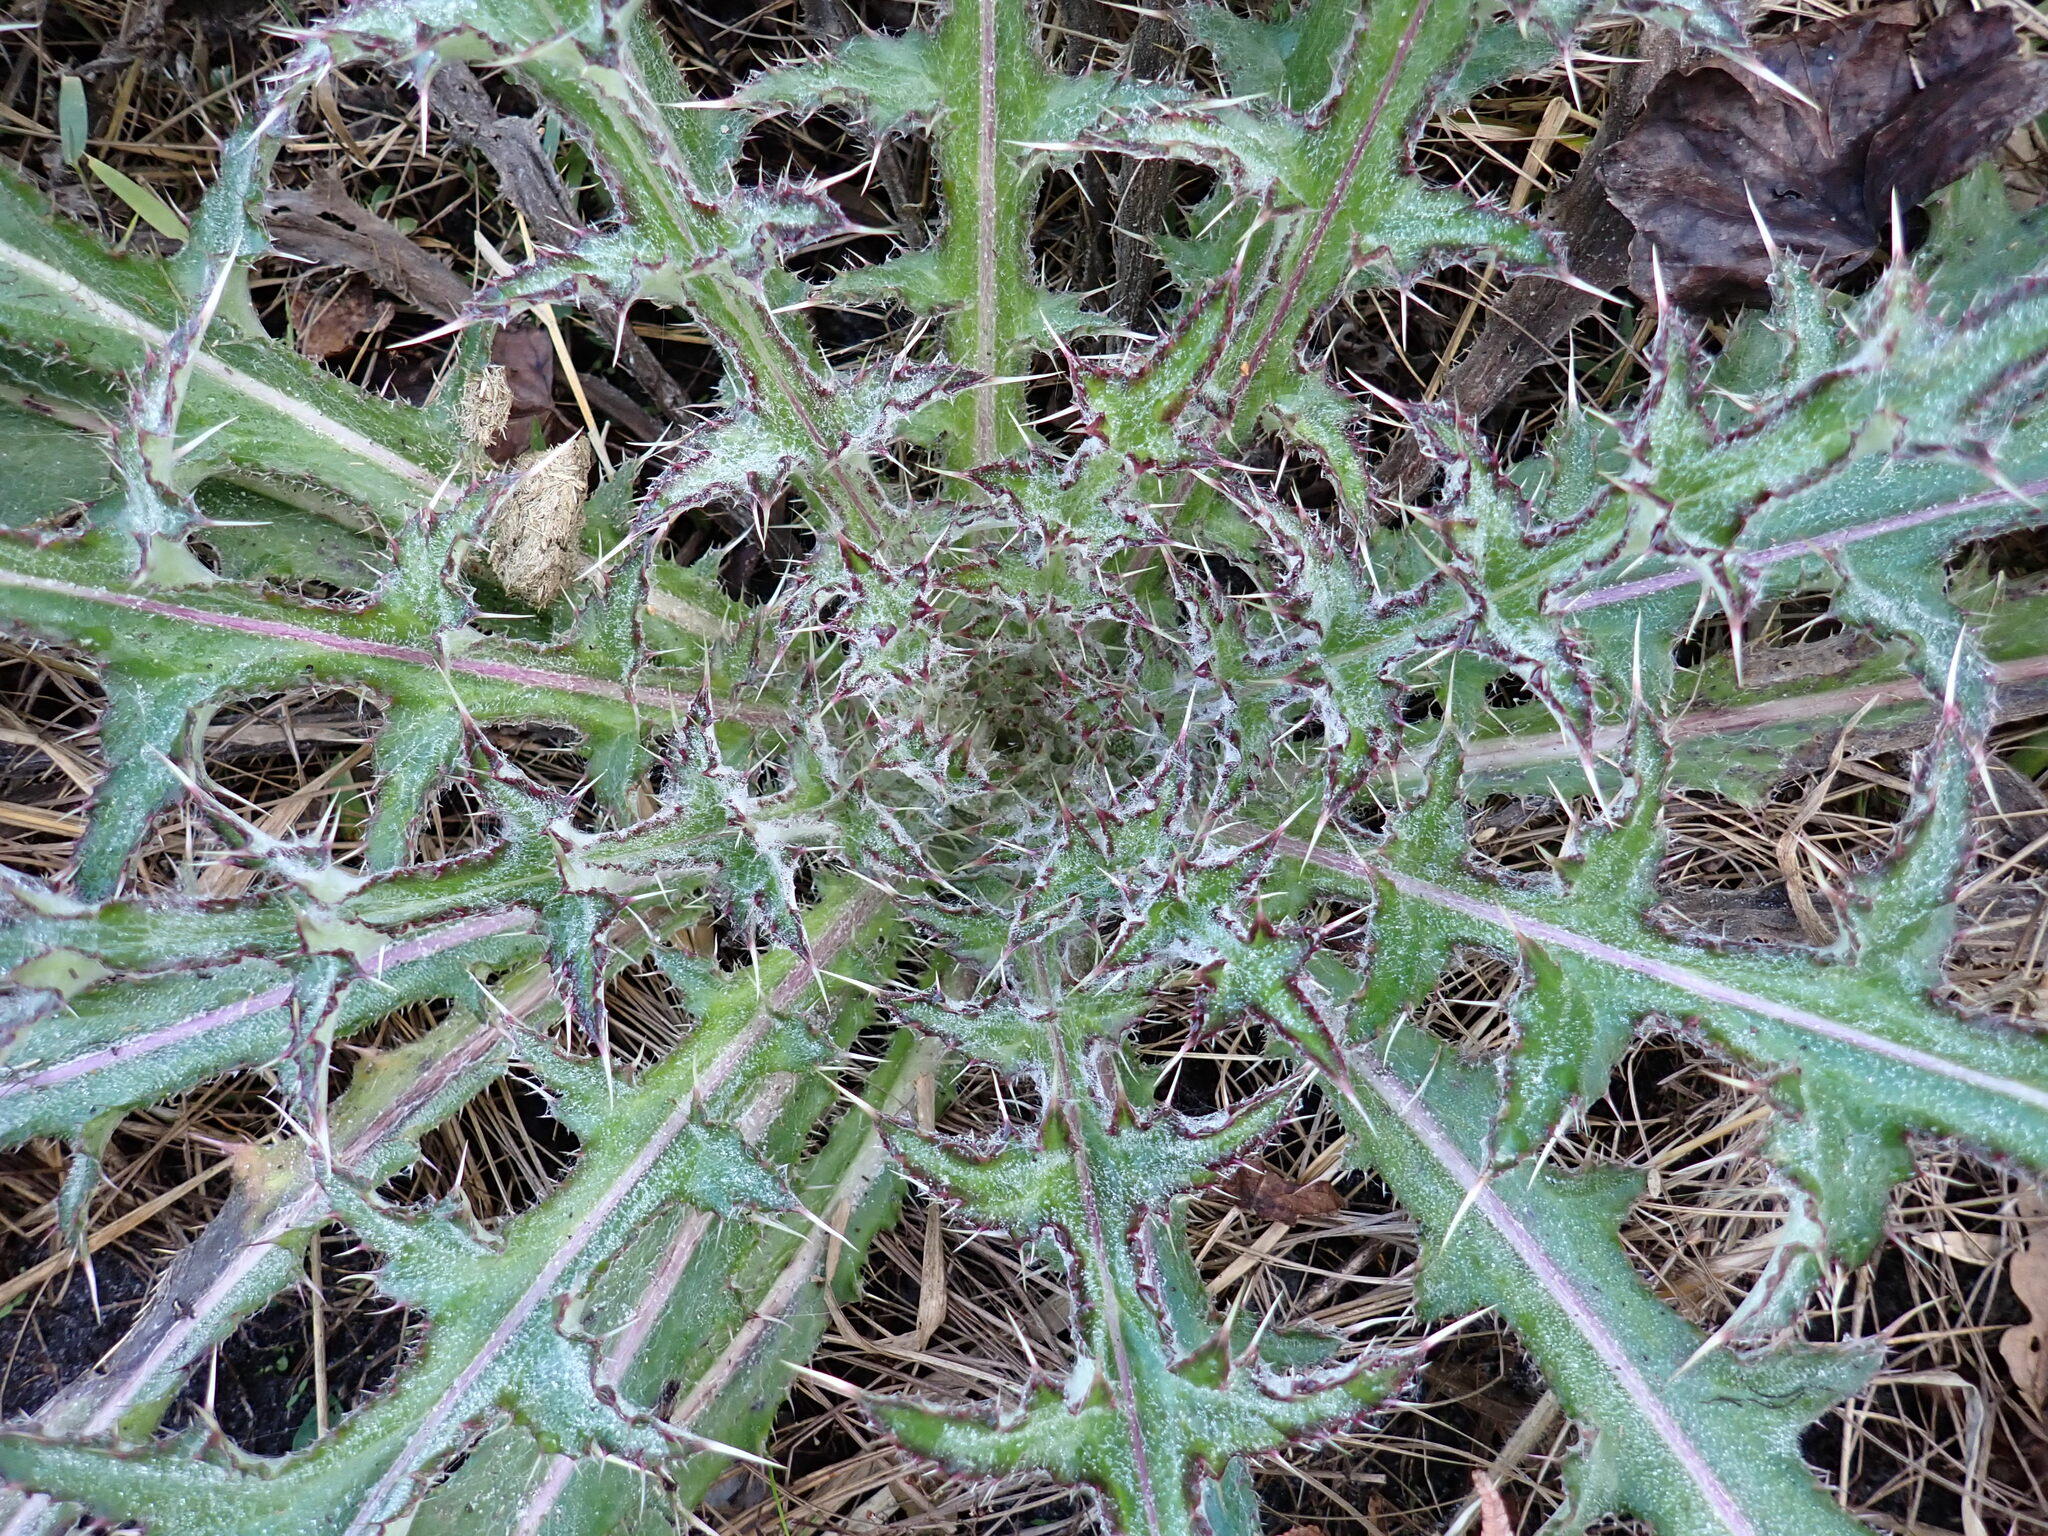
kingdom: Plantae
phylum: Tracheophyta
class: Magnoliopsida
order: Asterales
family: Asteraceae
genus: Cirsium
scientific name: Cirsium horridulum
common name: Bristly thistle
